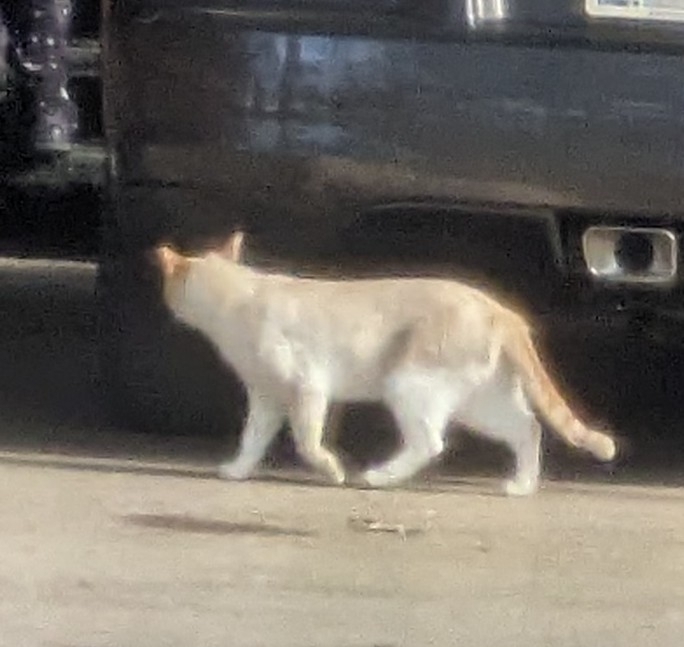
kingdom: Animalia
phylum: Chordata
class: Mammalia
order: Carnivora
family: Felidae
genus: Felis
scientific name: Felis catus
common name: Domestic cat
